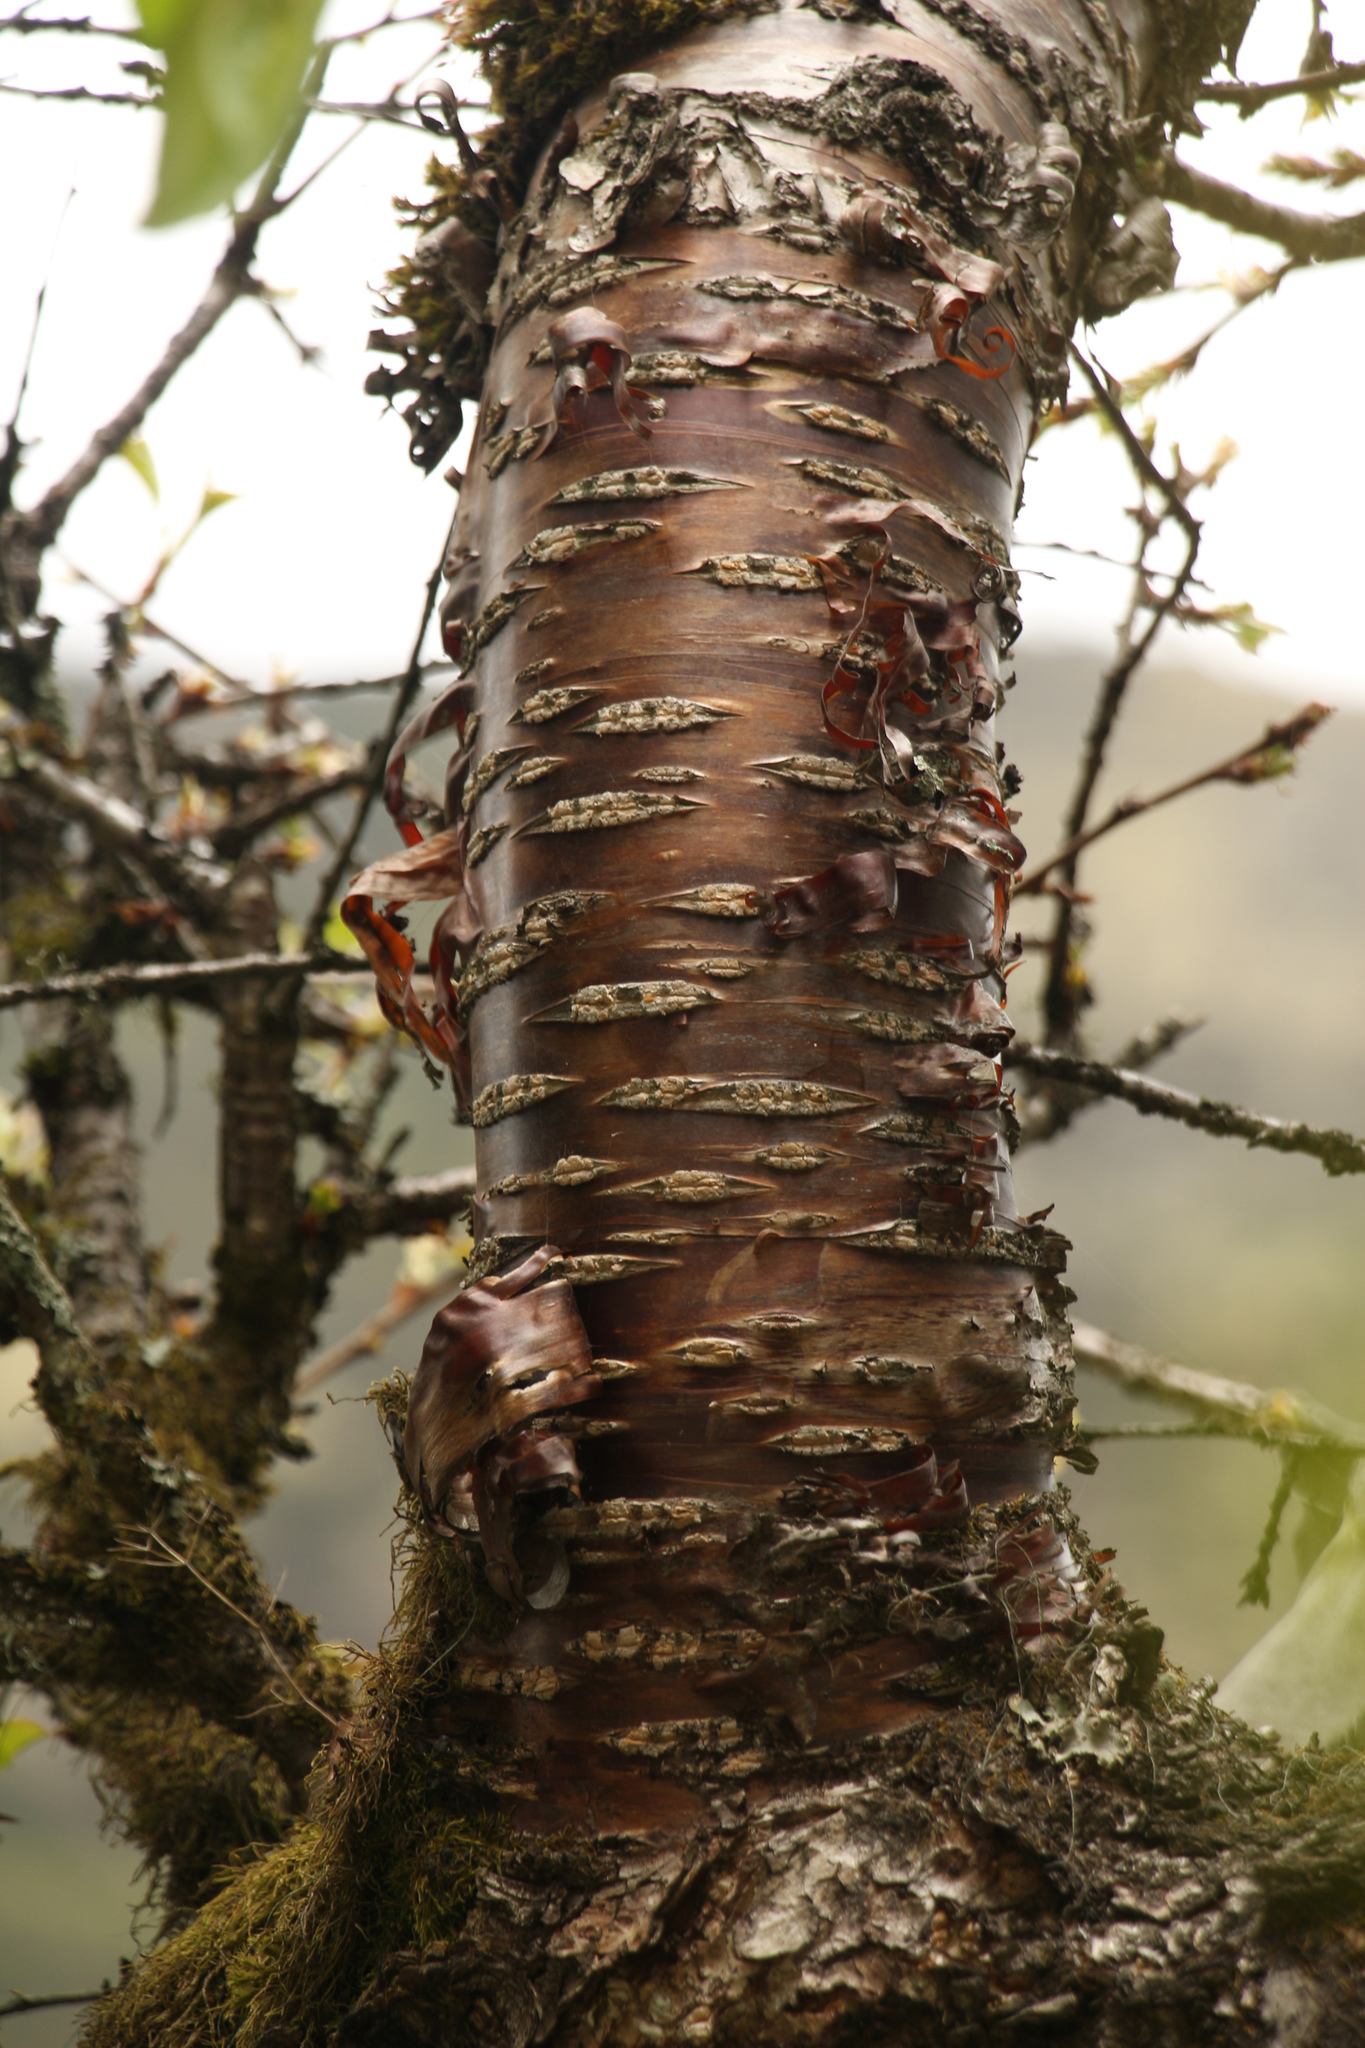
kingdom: Plantae
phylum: Tracheophyta
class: Magnoliopsida
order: Rosales
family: Rosaceae
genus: Prunus
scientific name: Prunus rufa
